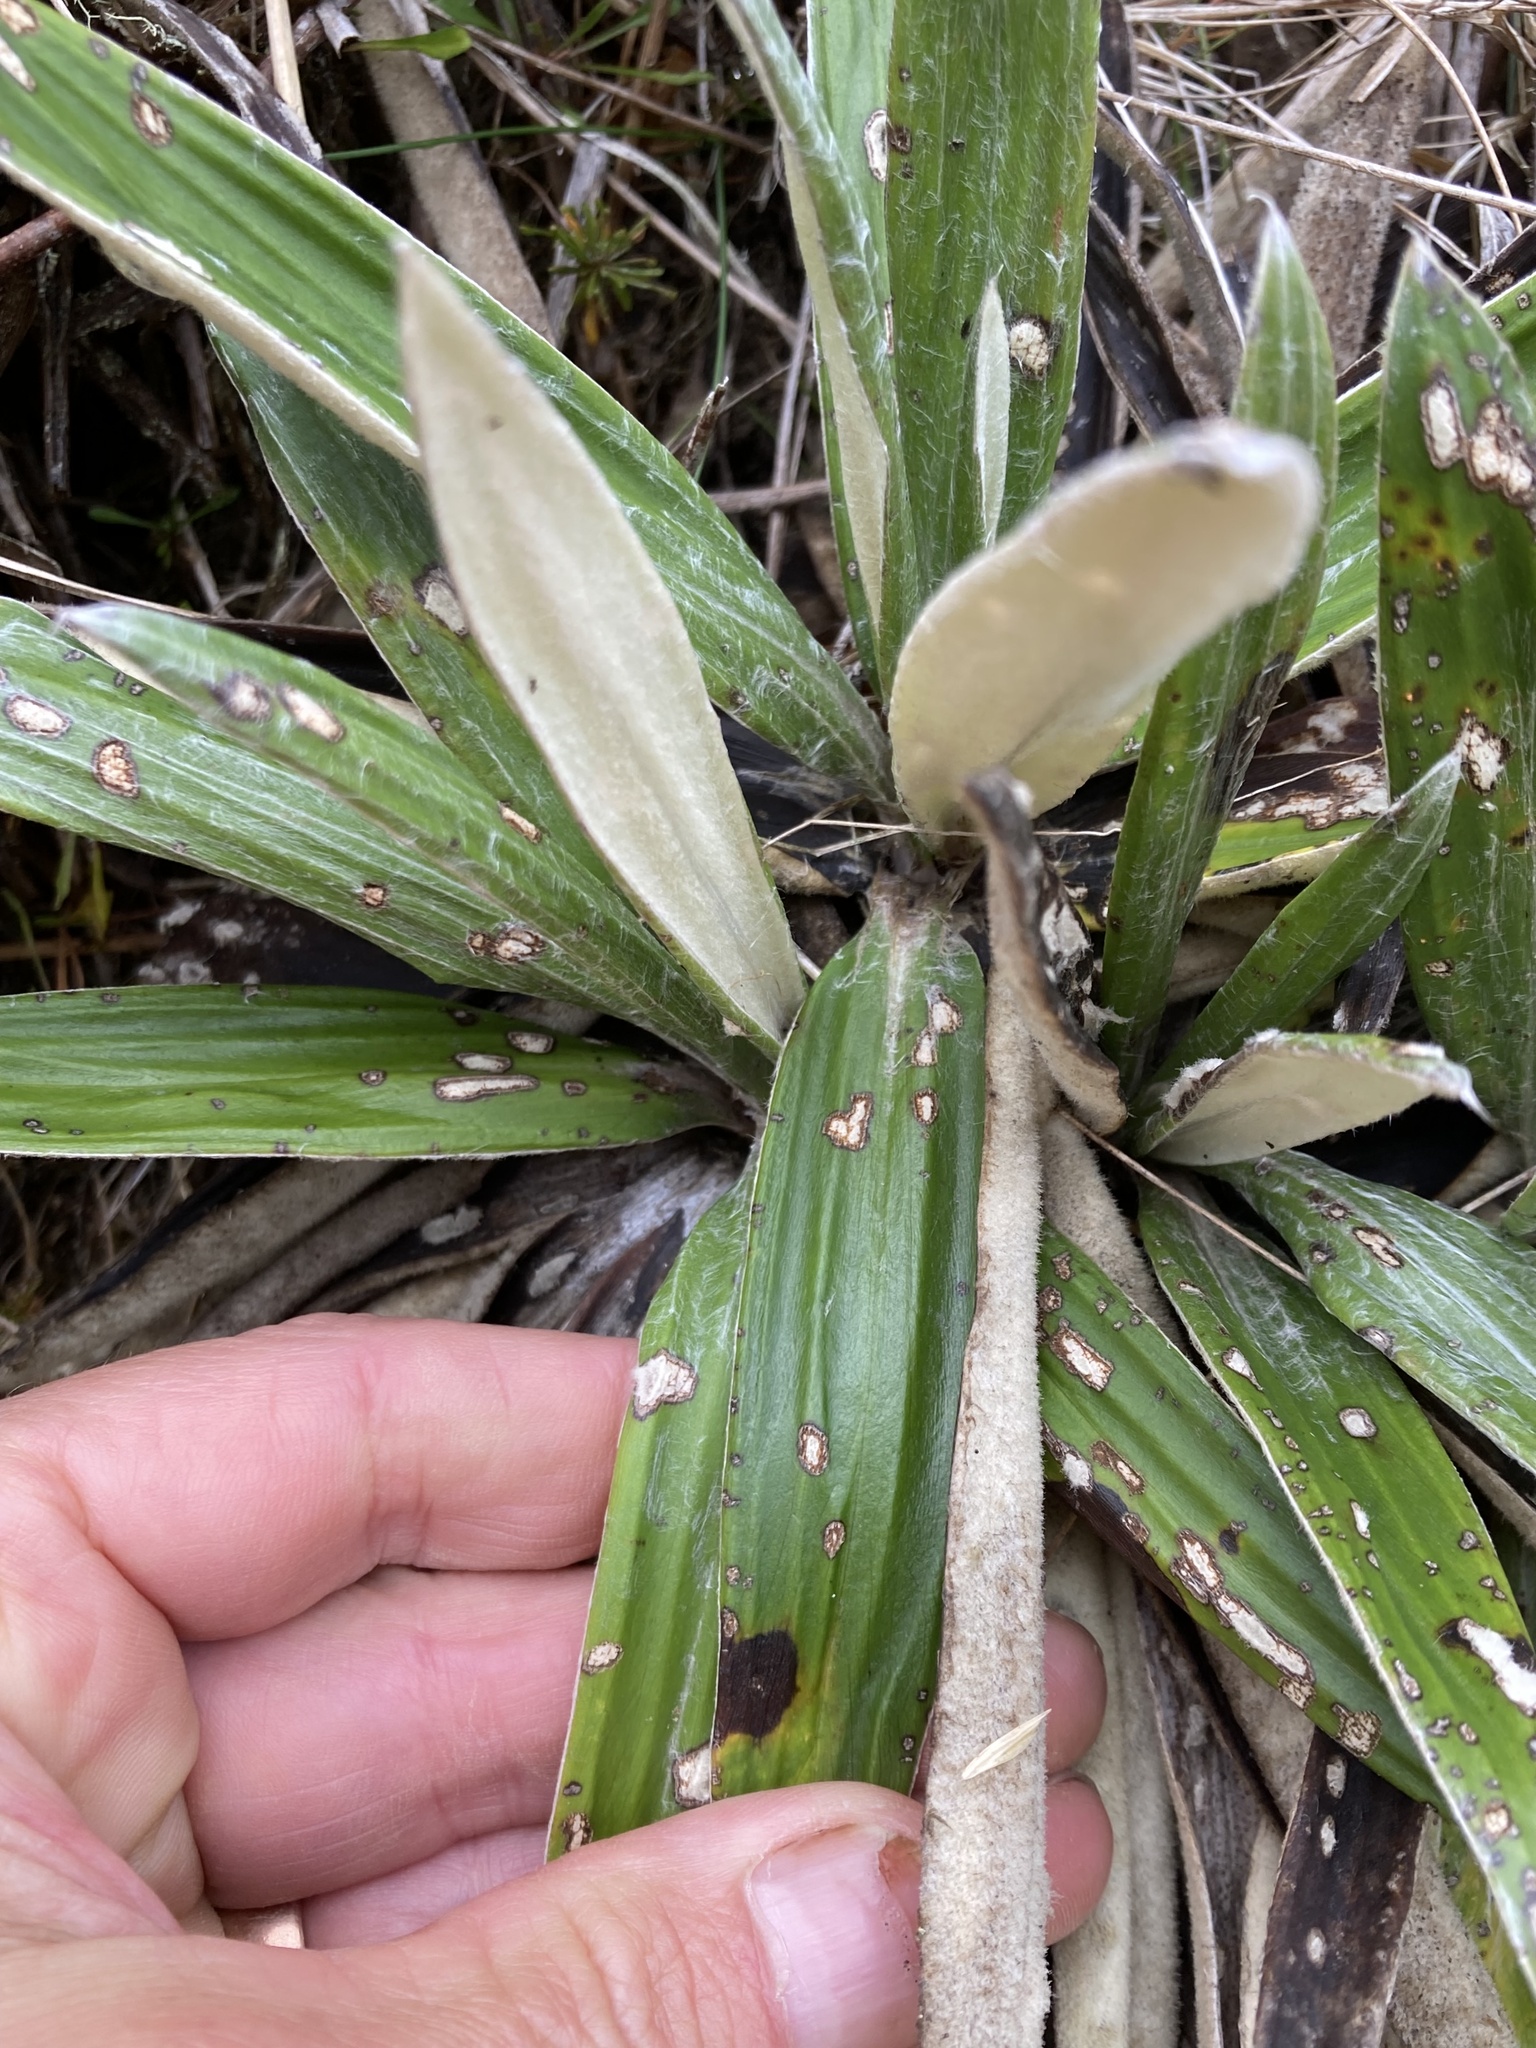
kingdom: Plantae
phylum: Tracheophyta
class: Magnoliopsida
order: Asterales
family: Asteraceae
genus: Celmisia
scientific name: Celmisia spectabilis
